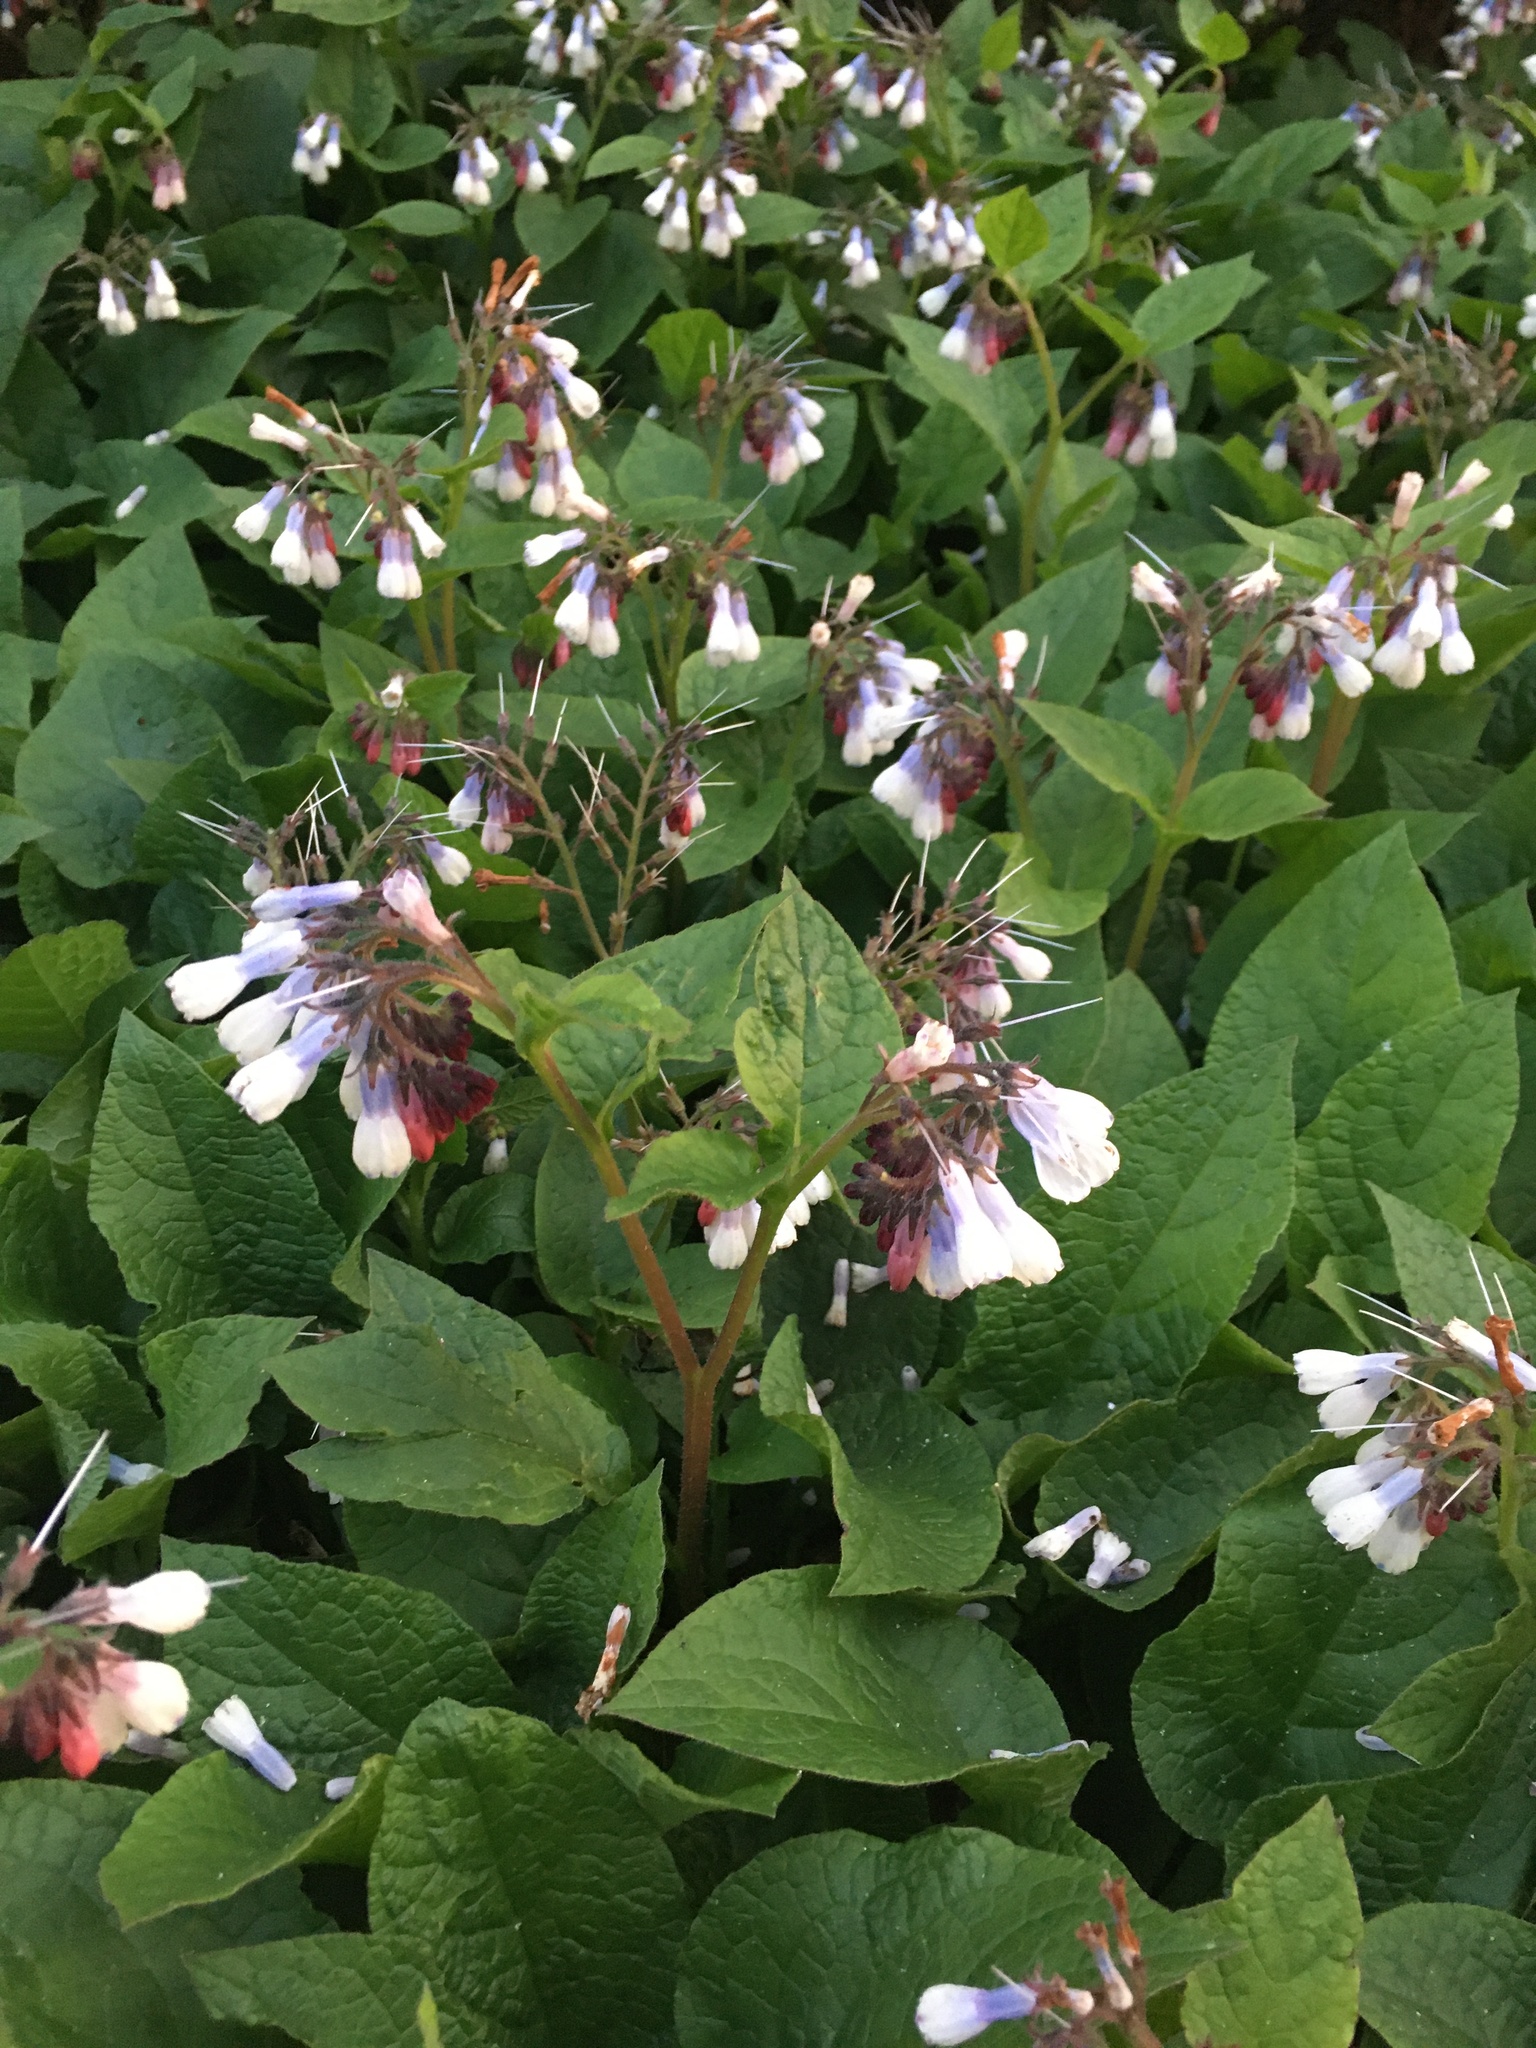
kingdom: Plantae
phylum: Tracheophyta
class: Magnoliopsida
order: Boraginales
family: Boraginaceae
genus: Symphytum
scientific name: Symphytum hidcotense
